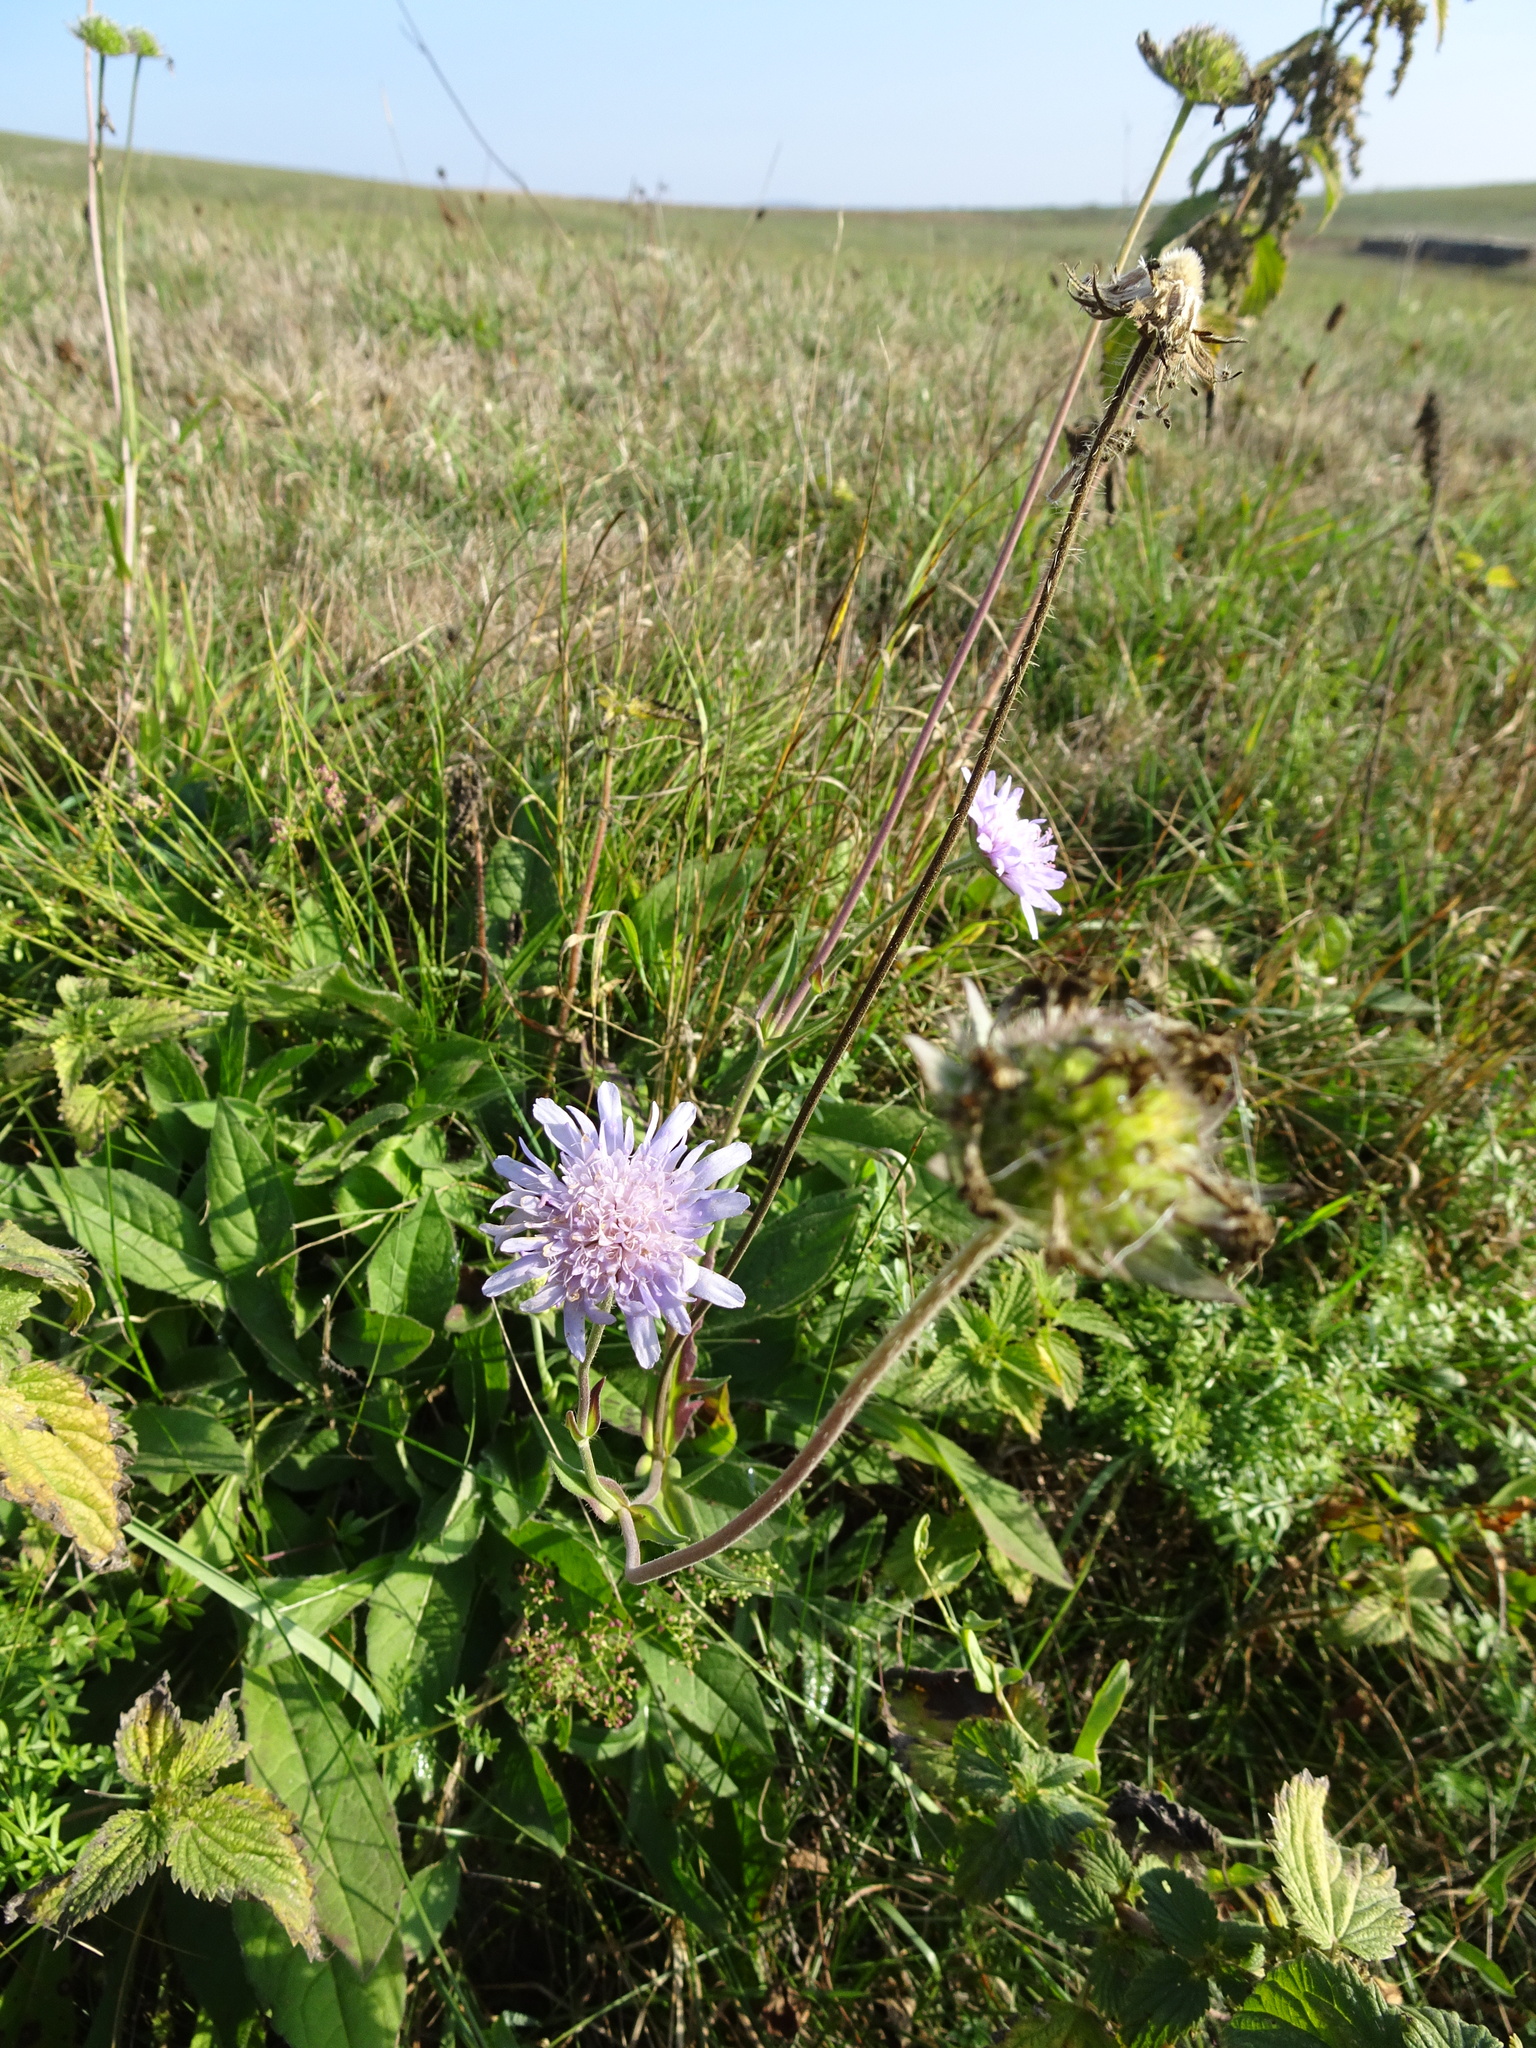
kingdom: Plantae
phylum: Tracheophyta
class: Magnoliopsida
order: Dipsacales
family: Caprifoliaceae
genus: Knautia
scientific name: Knautia arvensis
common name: Field scabiosa
